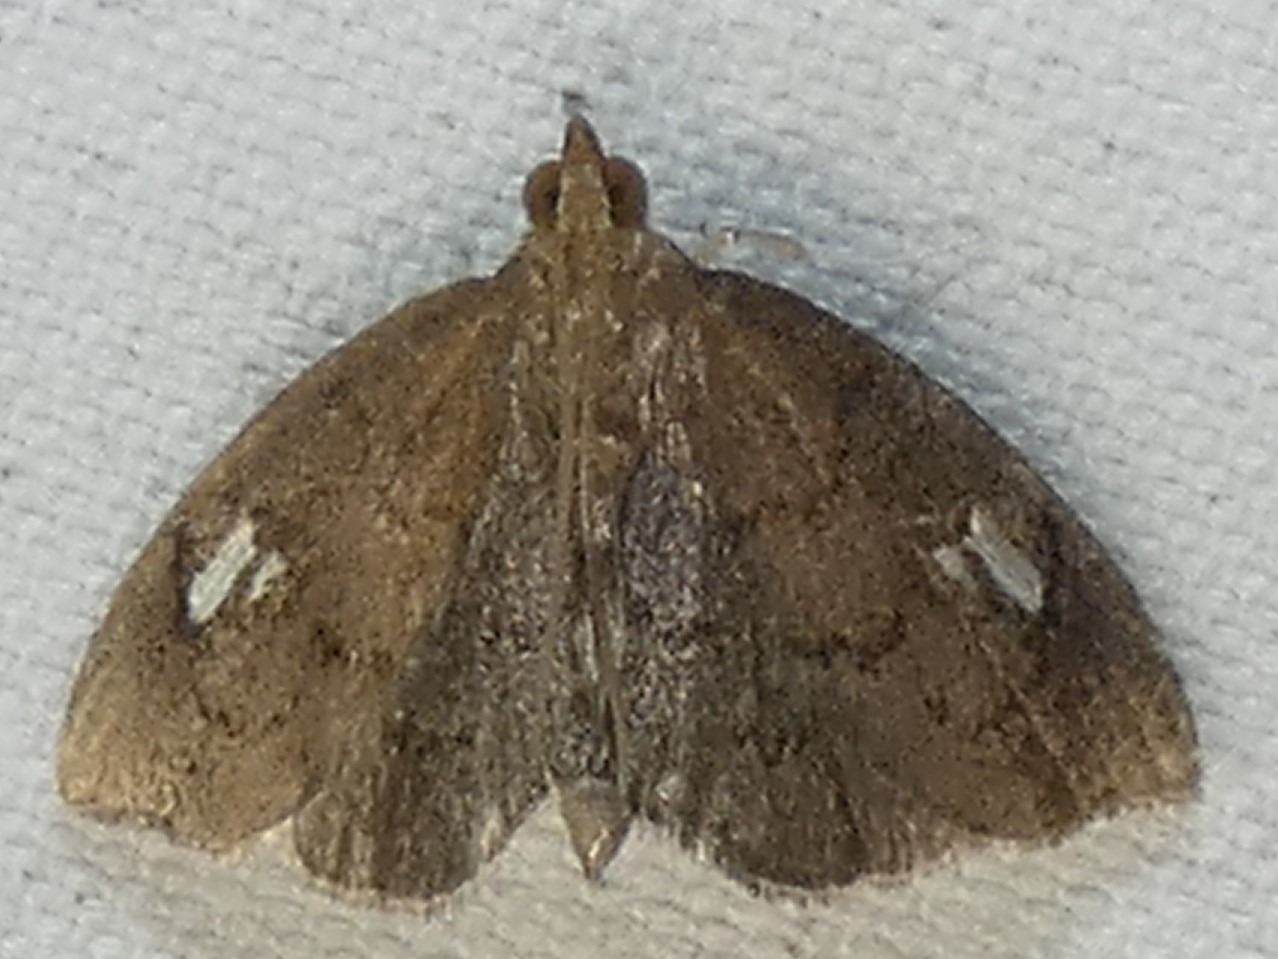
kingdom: Animalia
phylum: Arthropoda
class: Insecta
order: Lepidoptera
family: Crambidae
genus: Perispasta
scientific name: Perispasta caeculalis
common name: Titian peale's moth
